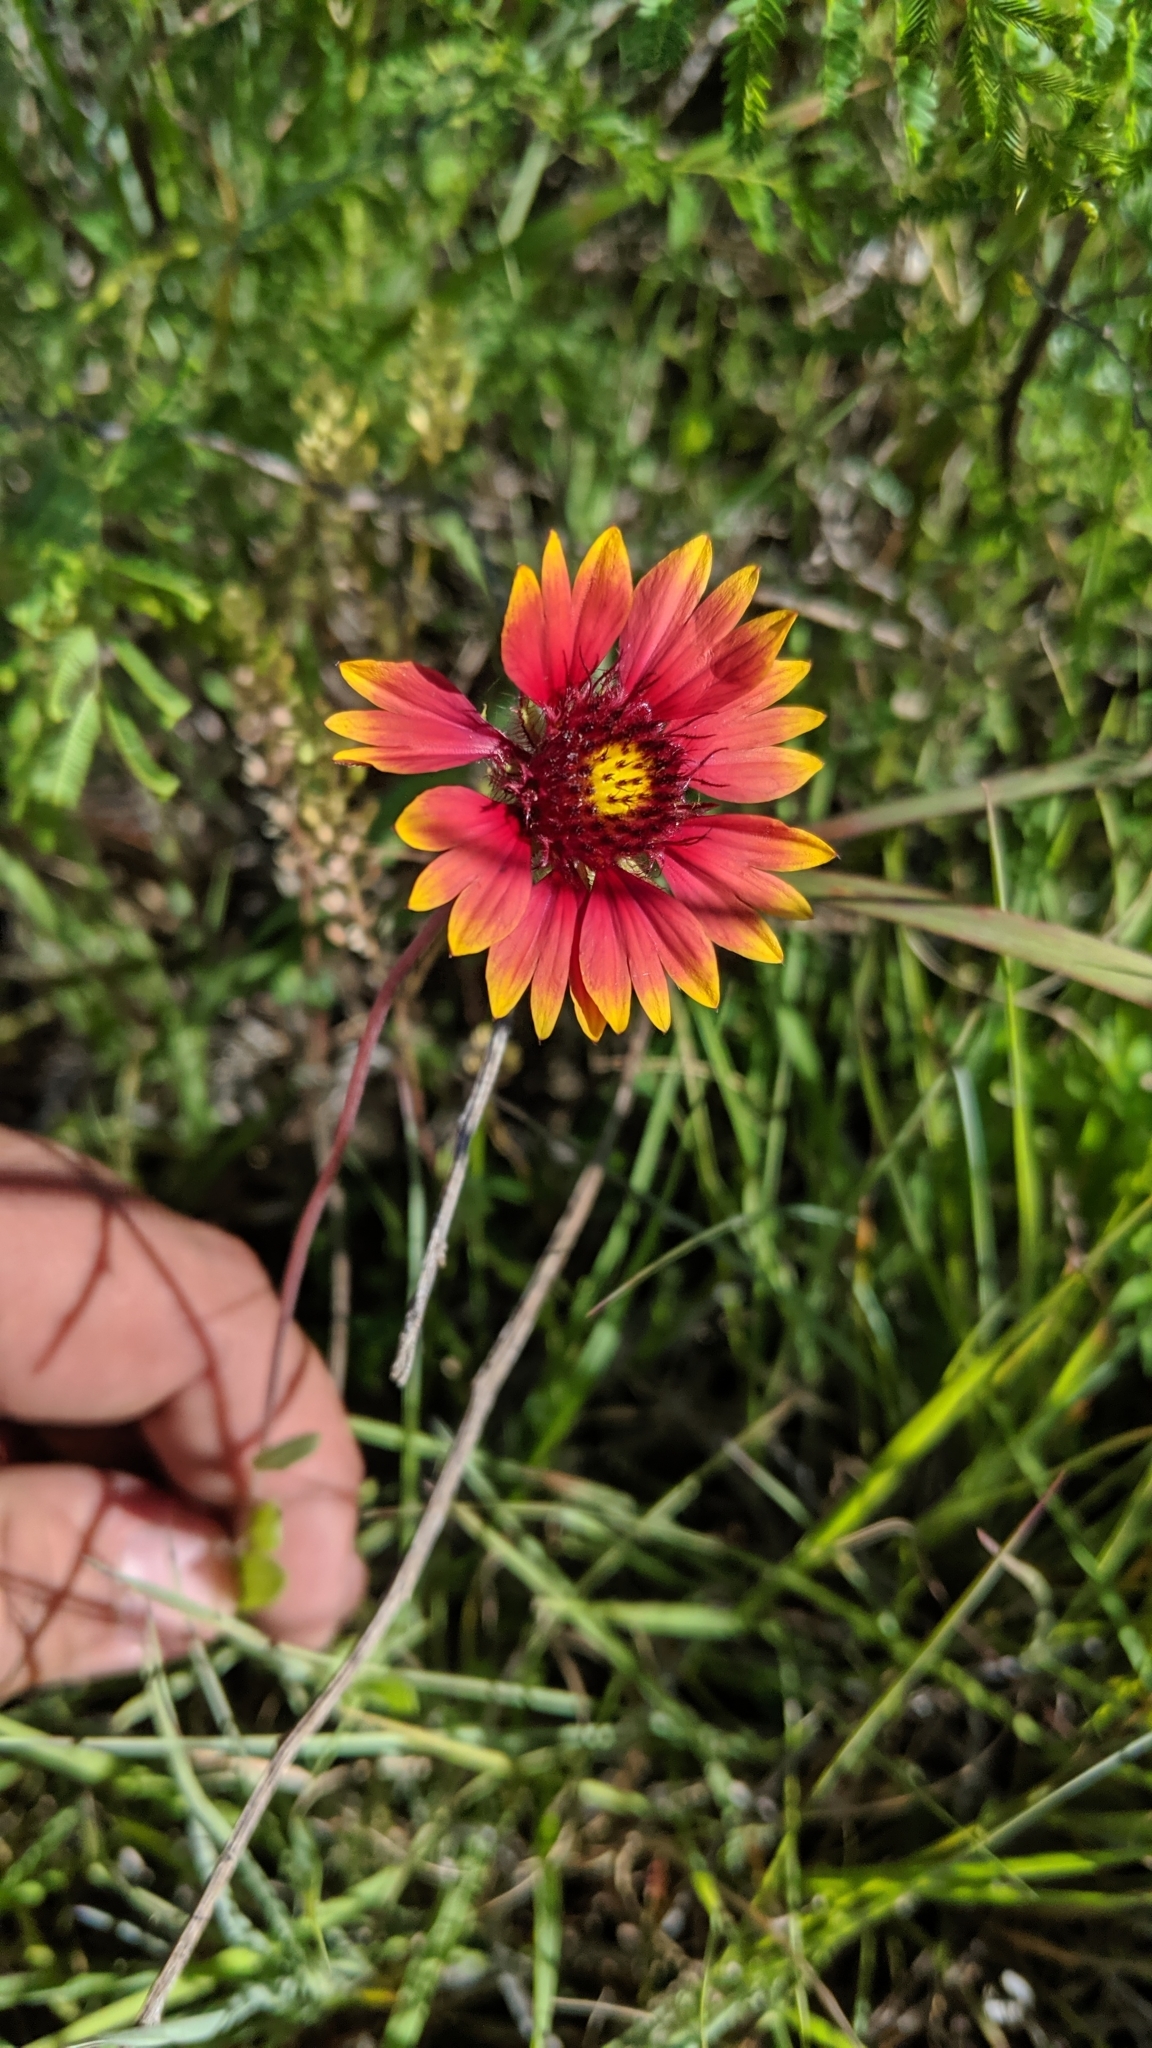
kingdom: Plantae
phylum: Tracheophyta
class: Magnoliopsida
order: Asterales
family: Asteraceae
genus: Gaillardia
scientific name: Gaillardia pulchella
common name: Firewheel
